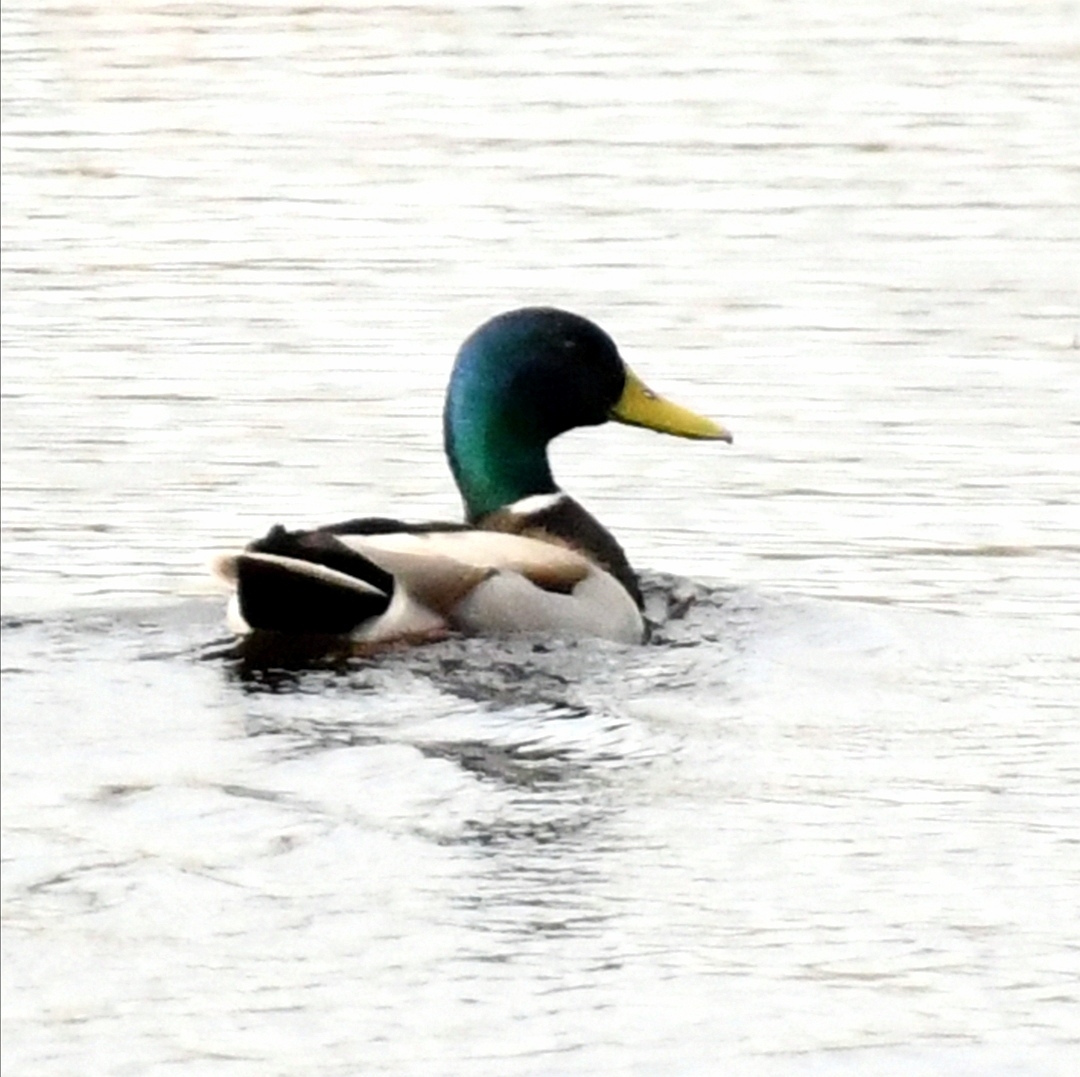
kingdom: Animalia
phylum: Chordata
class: Aves
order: Anseriformes
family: Anatidae
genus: Anas
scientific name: Anas platyrhynchos
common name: Mallard
